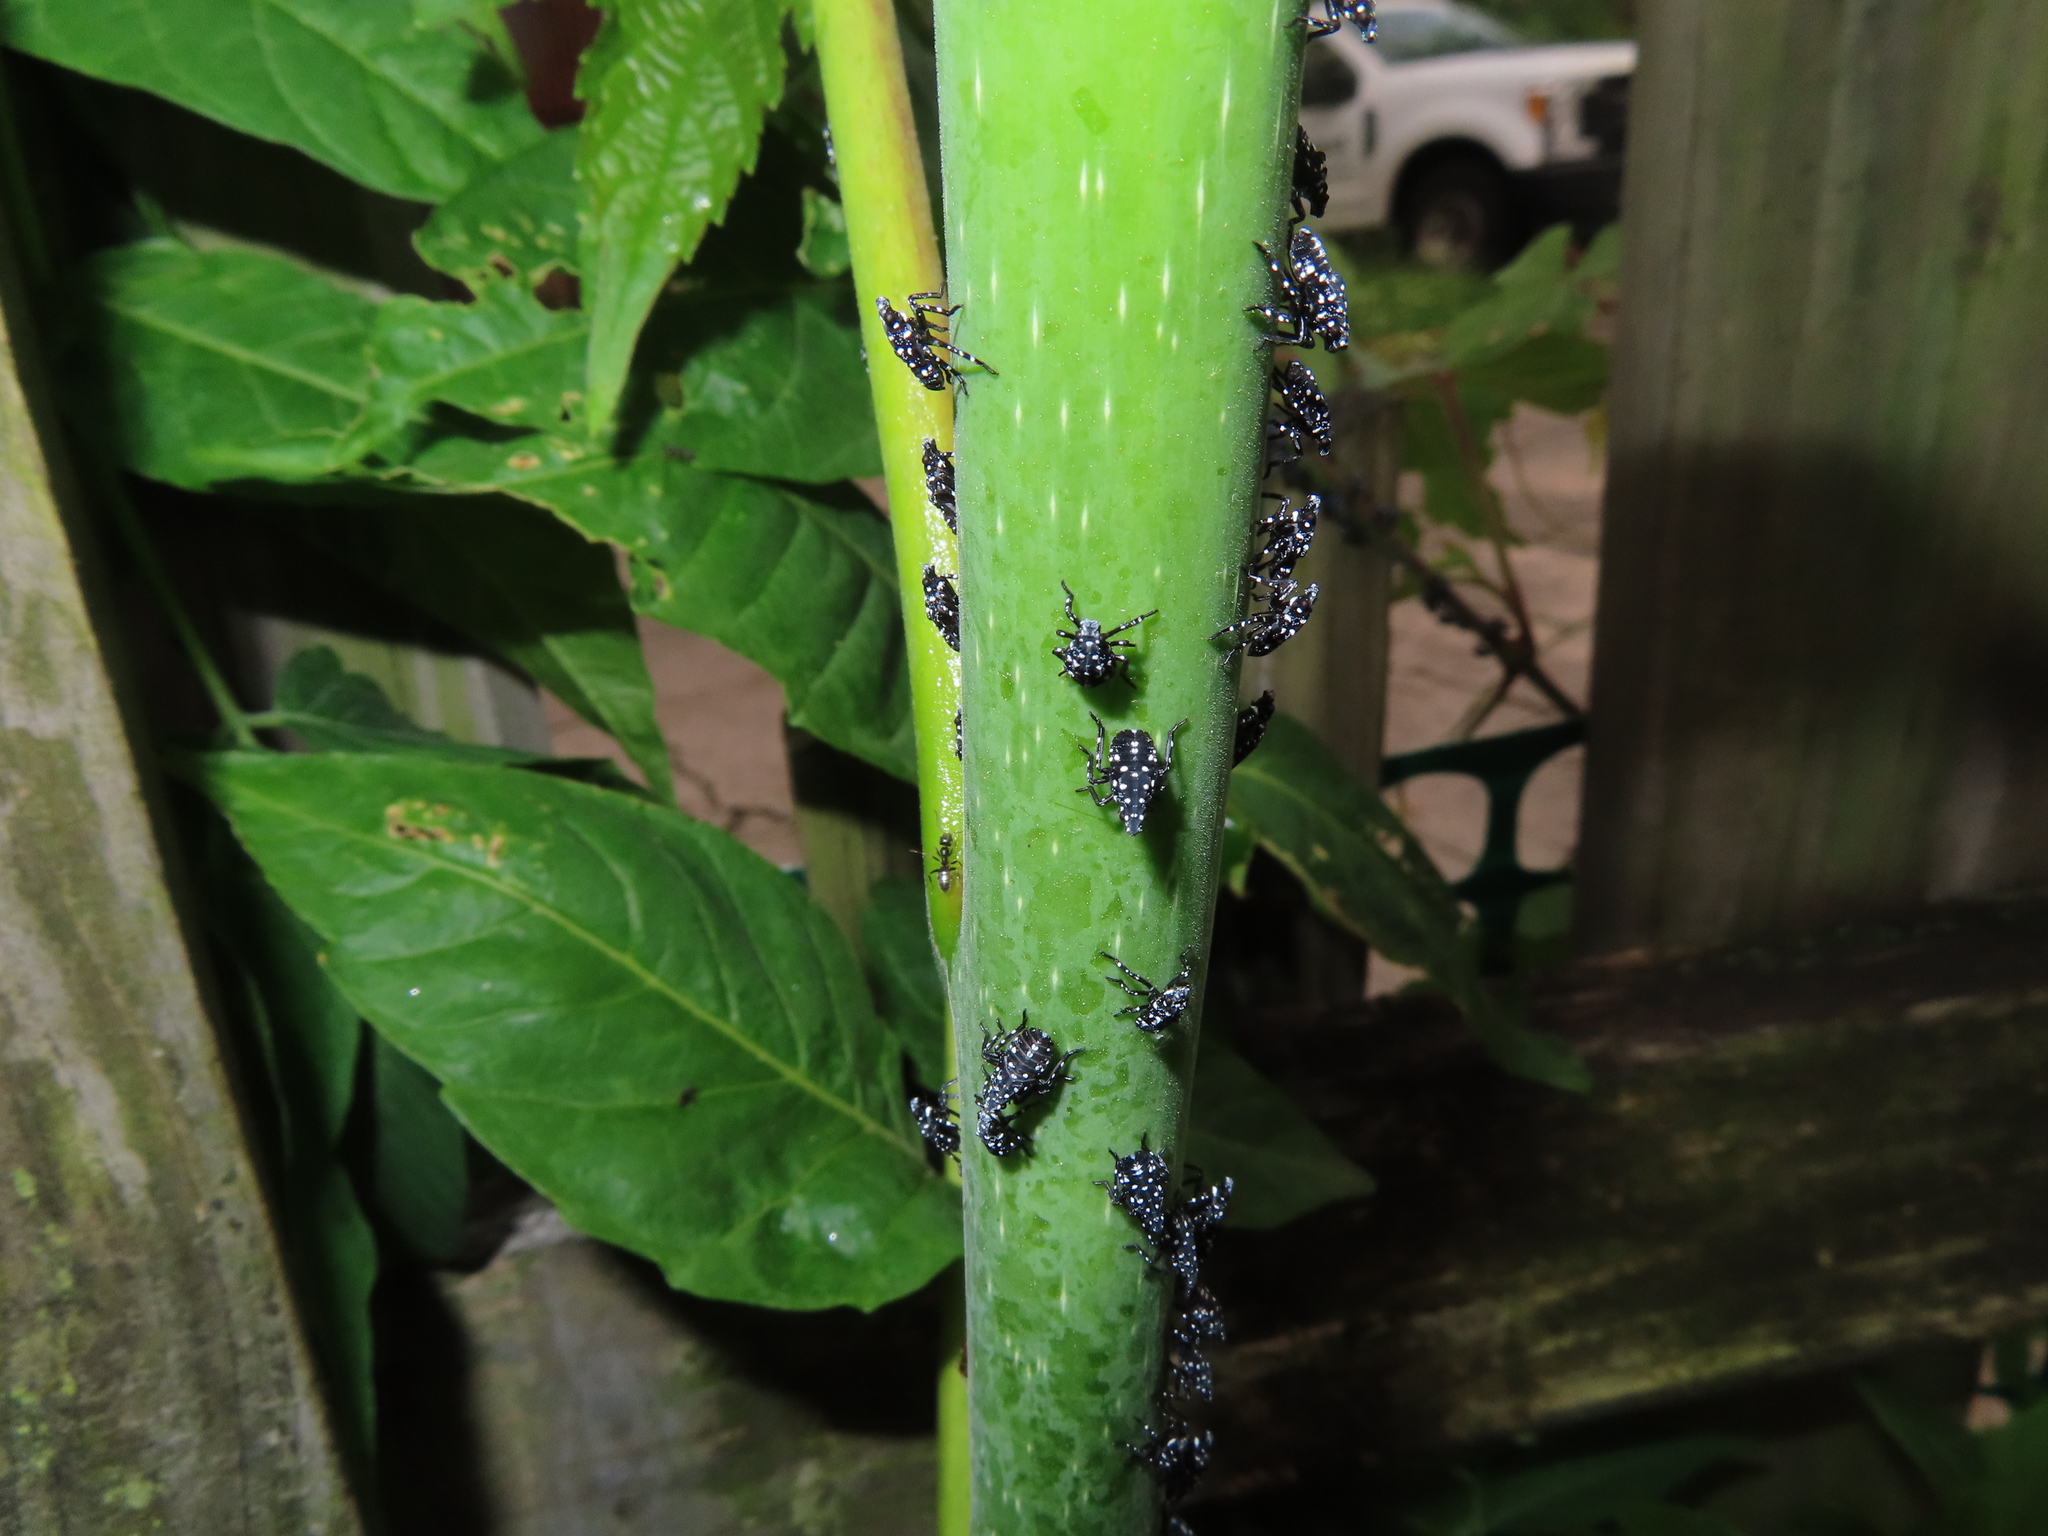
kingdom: Animalia
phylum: Arthropoda
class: Insecta
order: Hemiptera
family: Fulgoridae
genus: Lycorma
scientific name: Lycorma delicatula
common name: Spotted lanternfly
